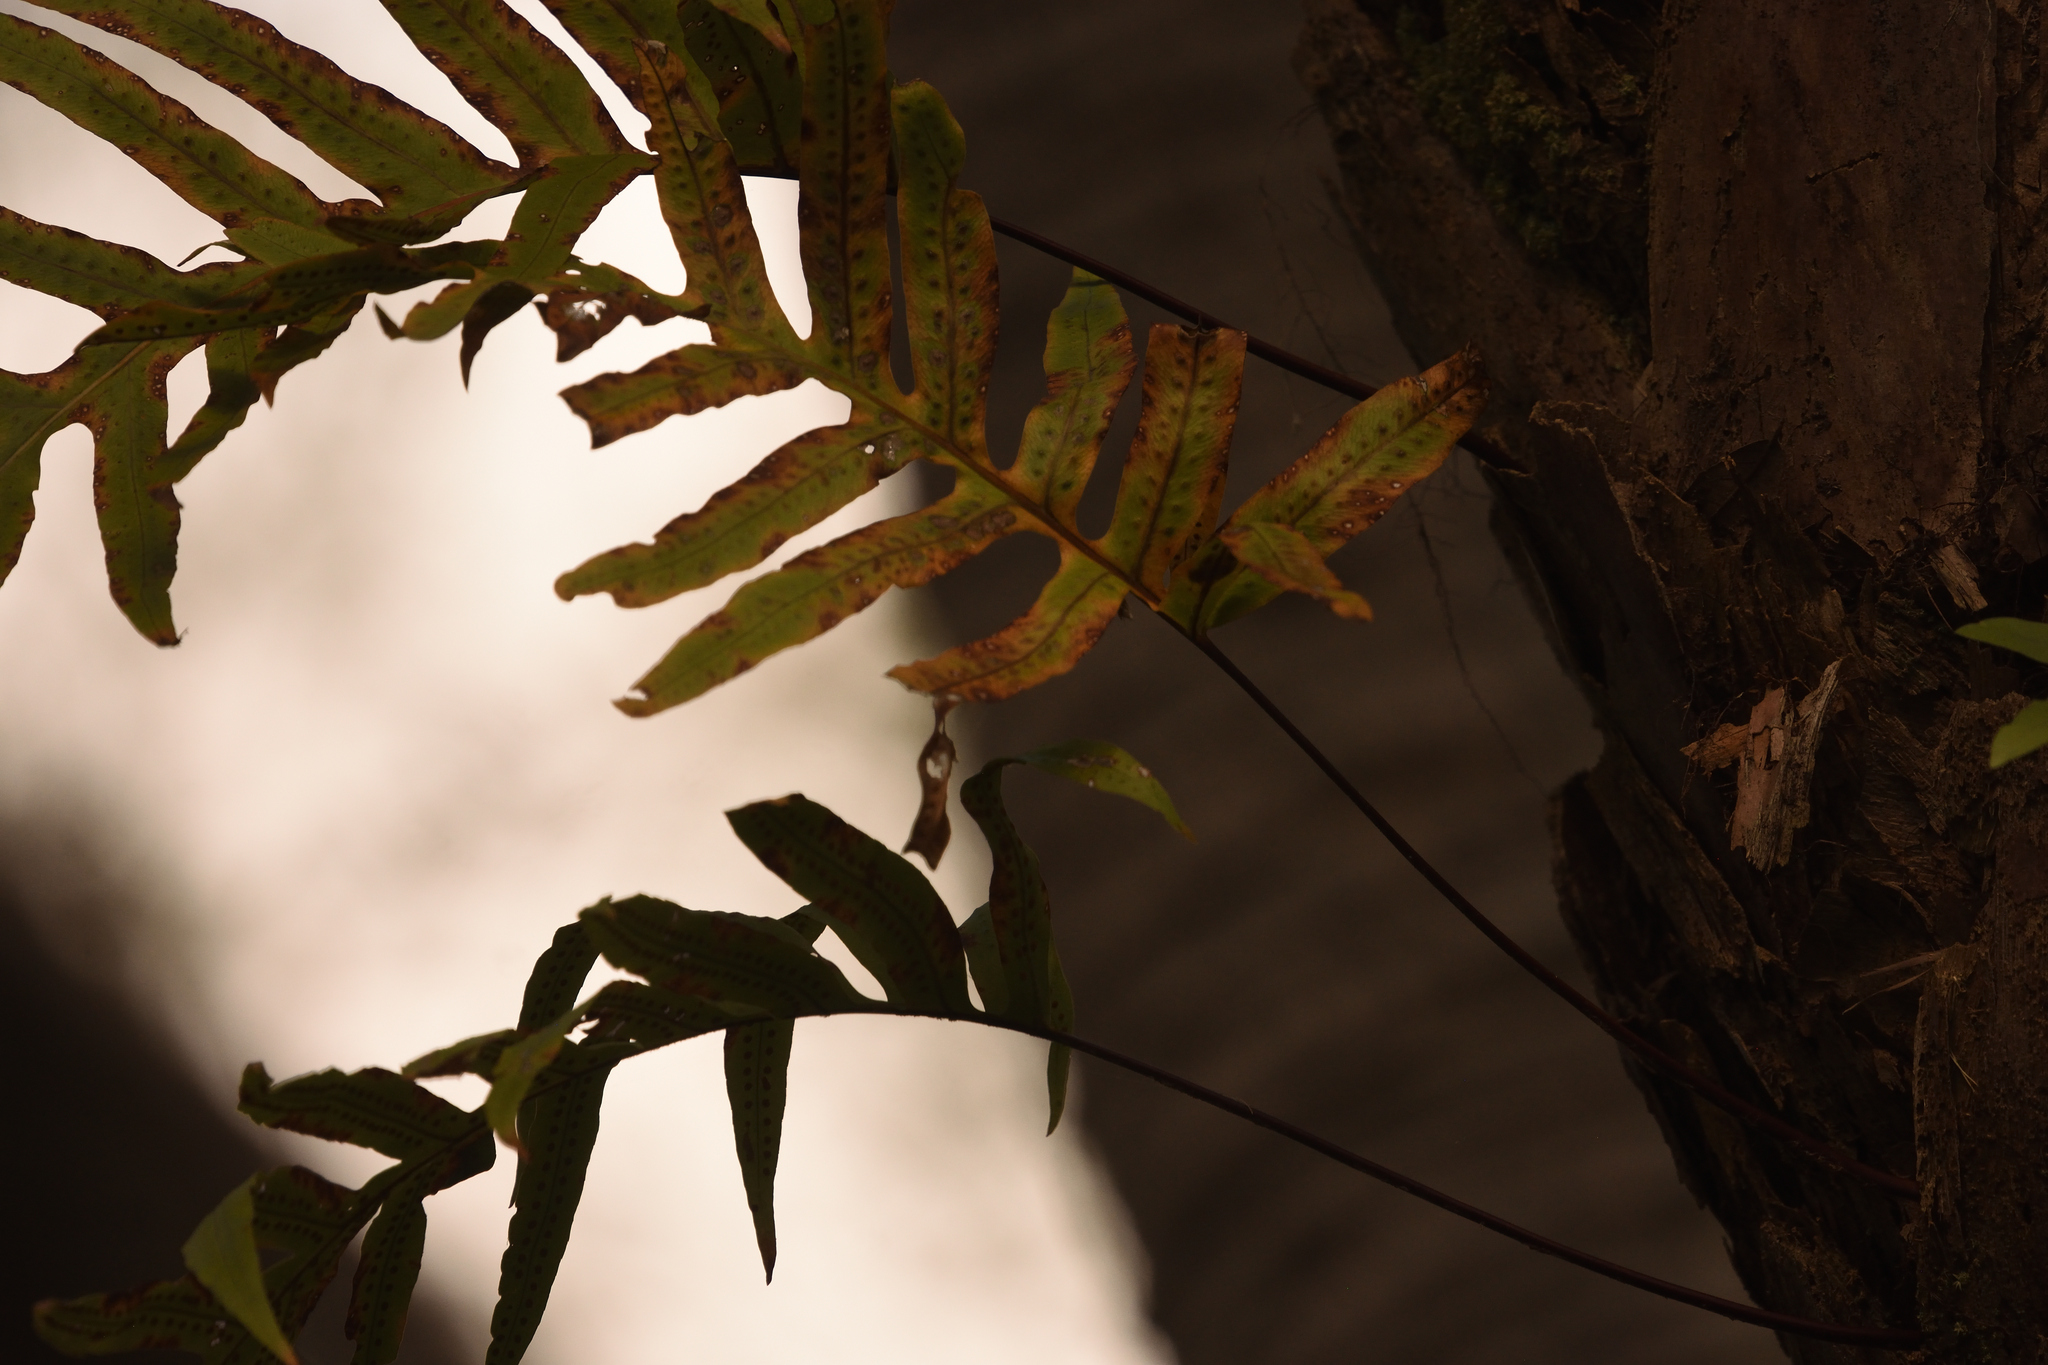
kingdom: Plantae
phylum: Tracheophyta
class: Polypodiopsida
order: Polypodiales
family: Polypodiaceae
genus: Phlebodium
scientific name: Phlebodium aureum
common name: Gold-foot fern
